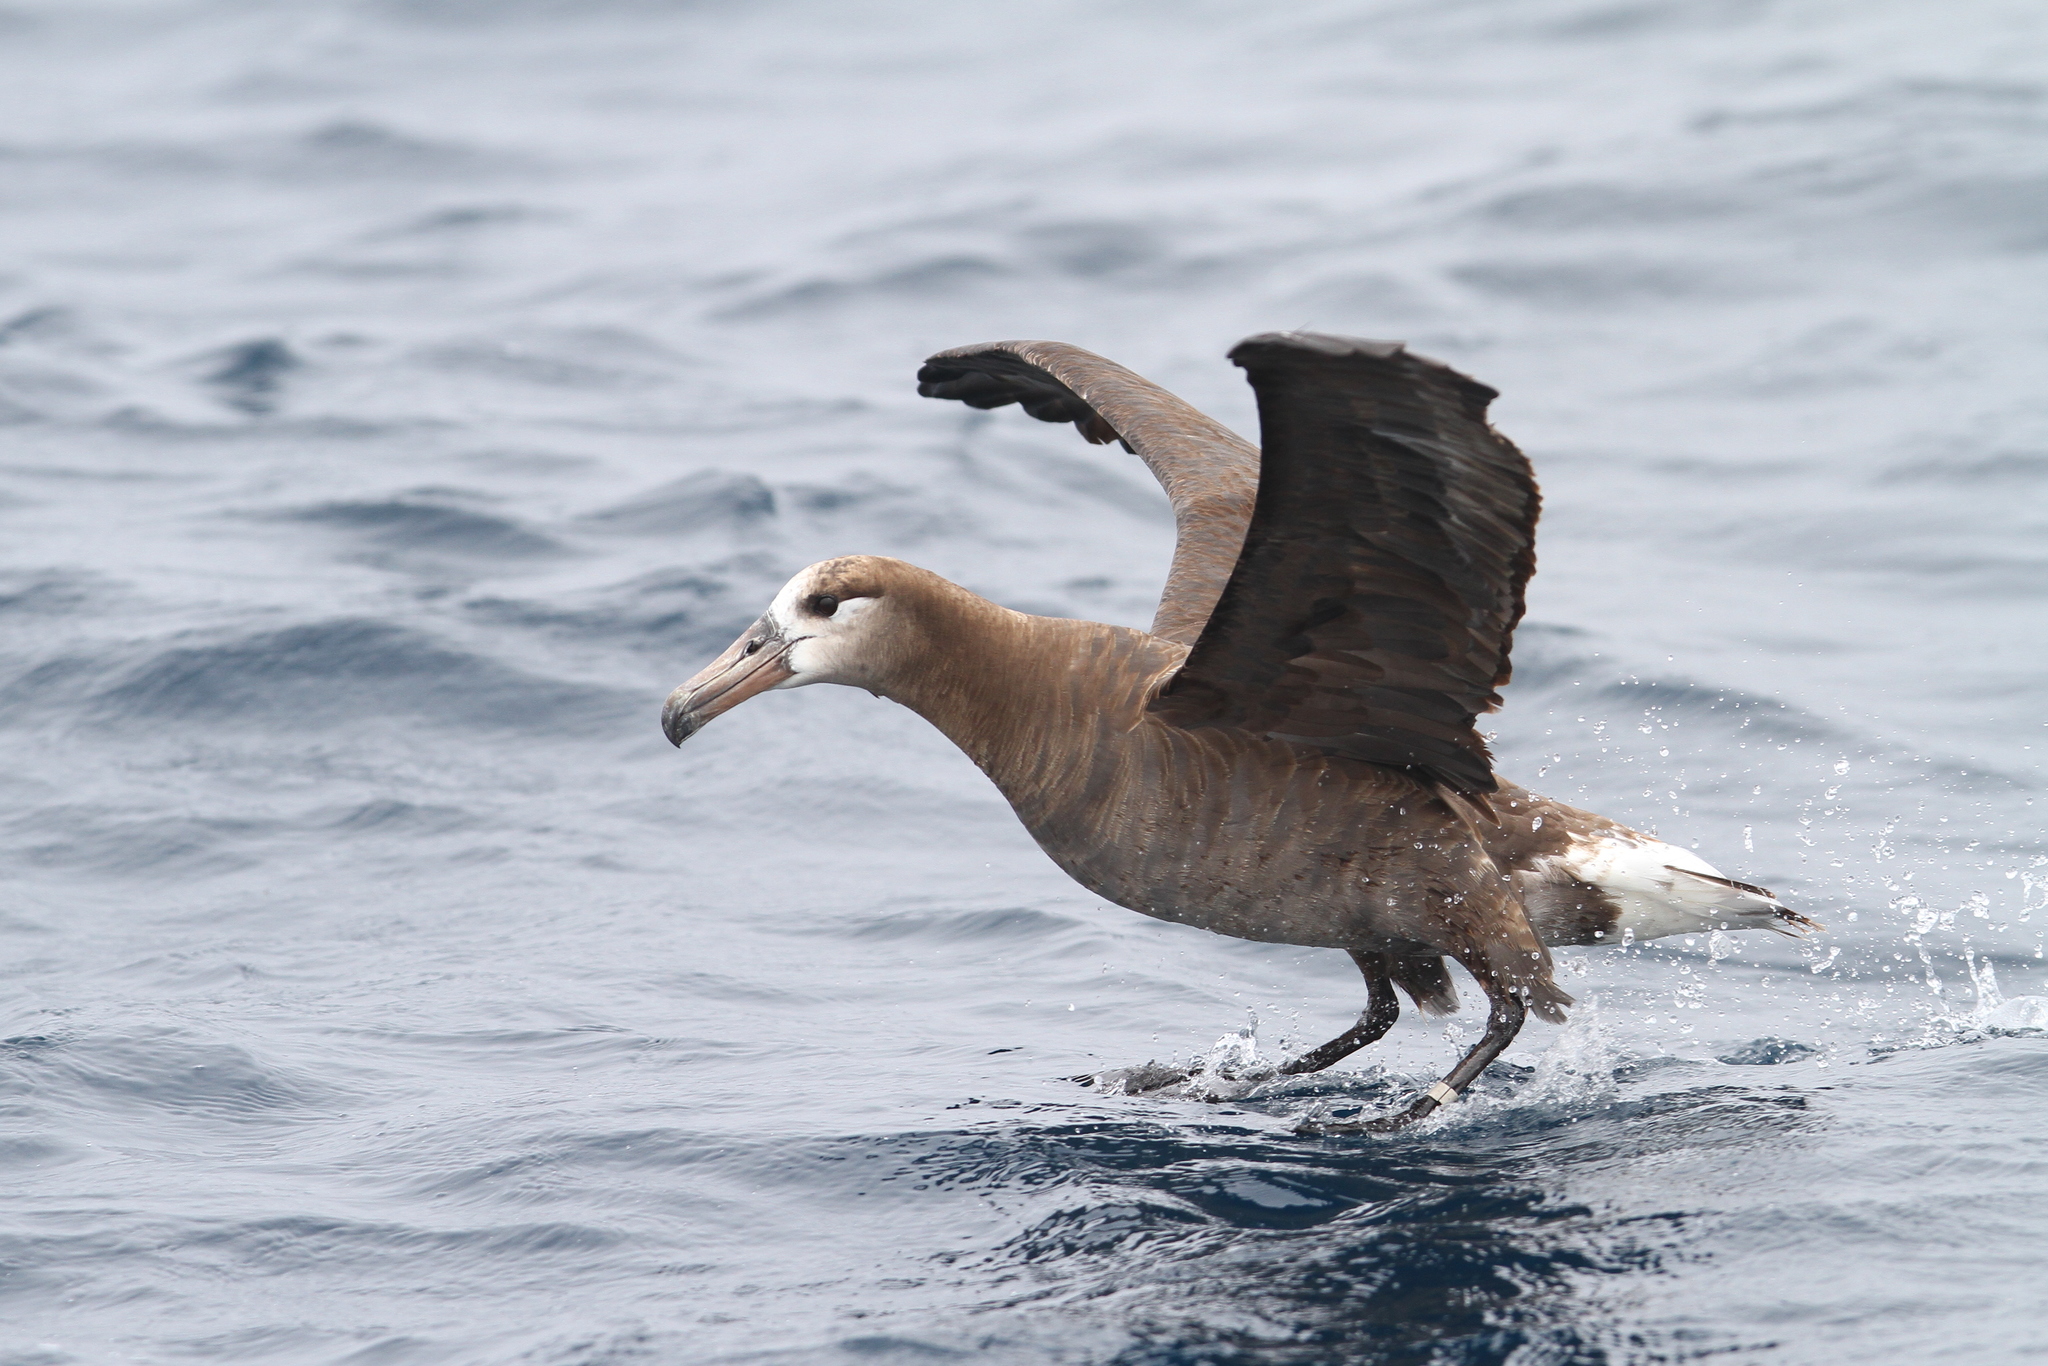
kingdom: Animalia
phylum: Chordata
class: Aves
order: Procellariiformes
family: Diomedeidae
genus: Phoebastria
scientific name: Phoebastria nigripes
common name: Black-footed albatross
